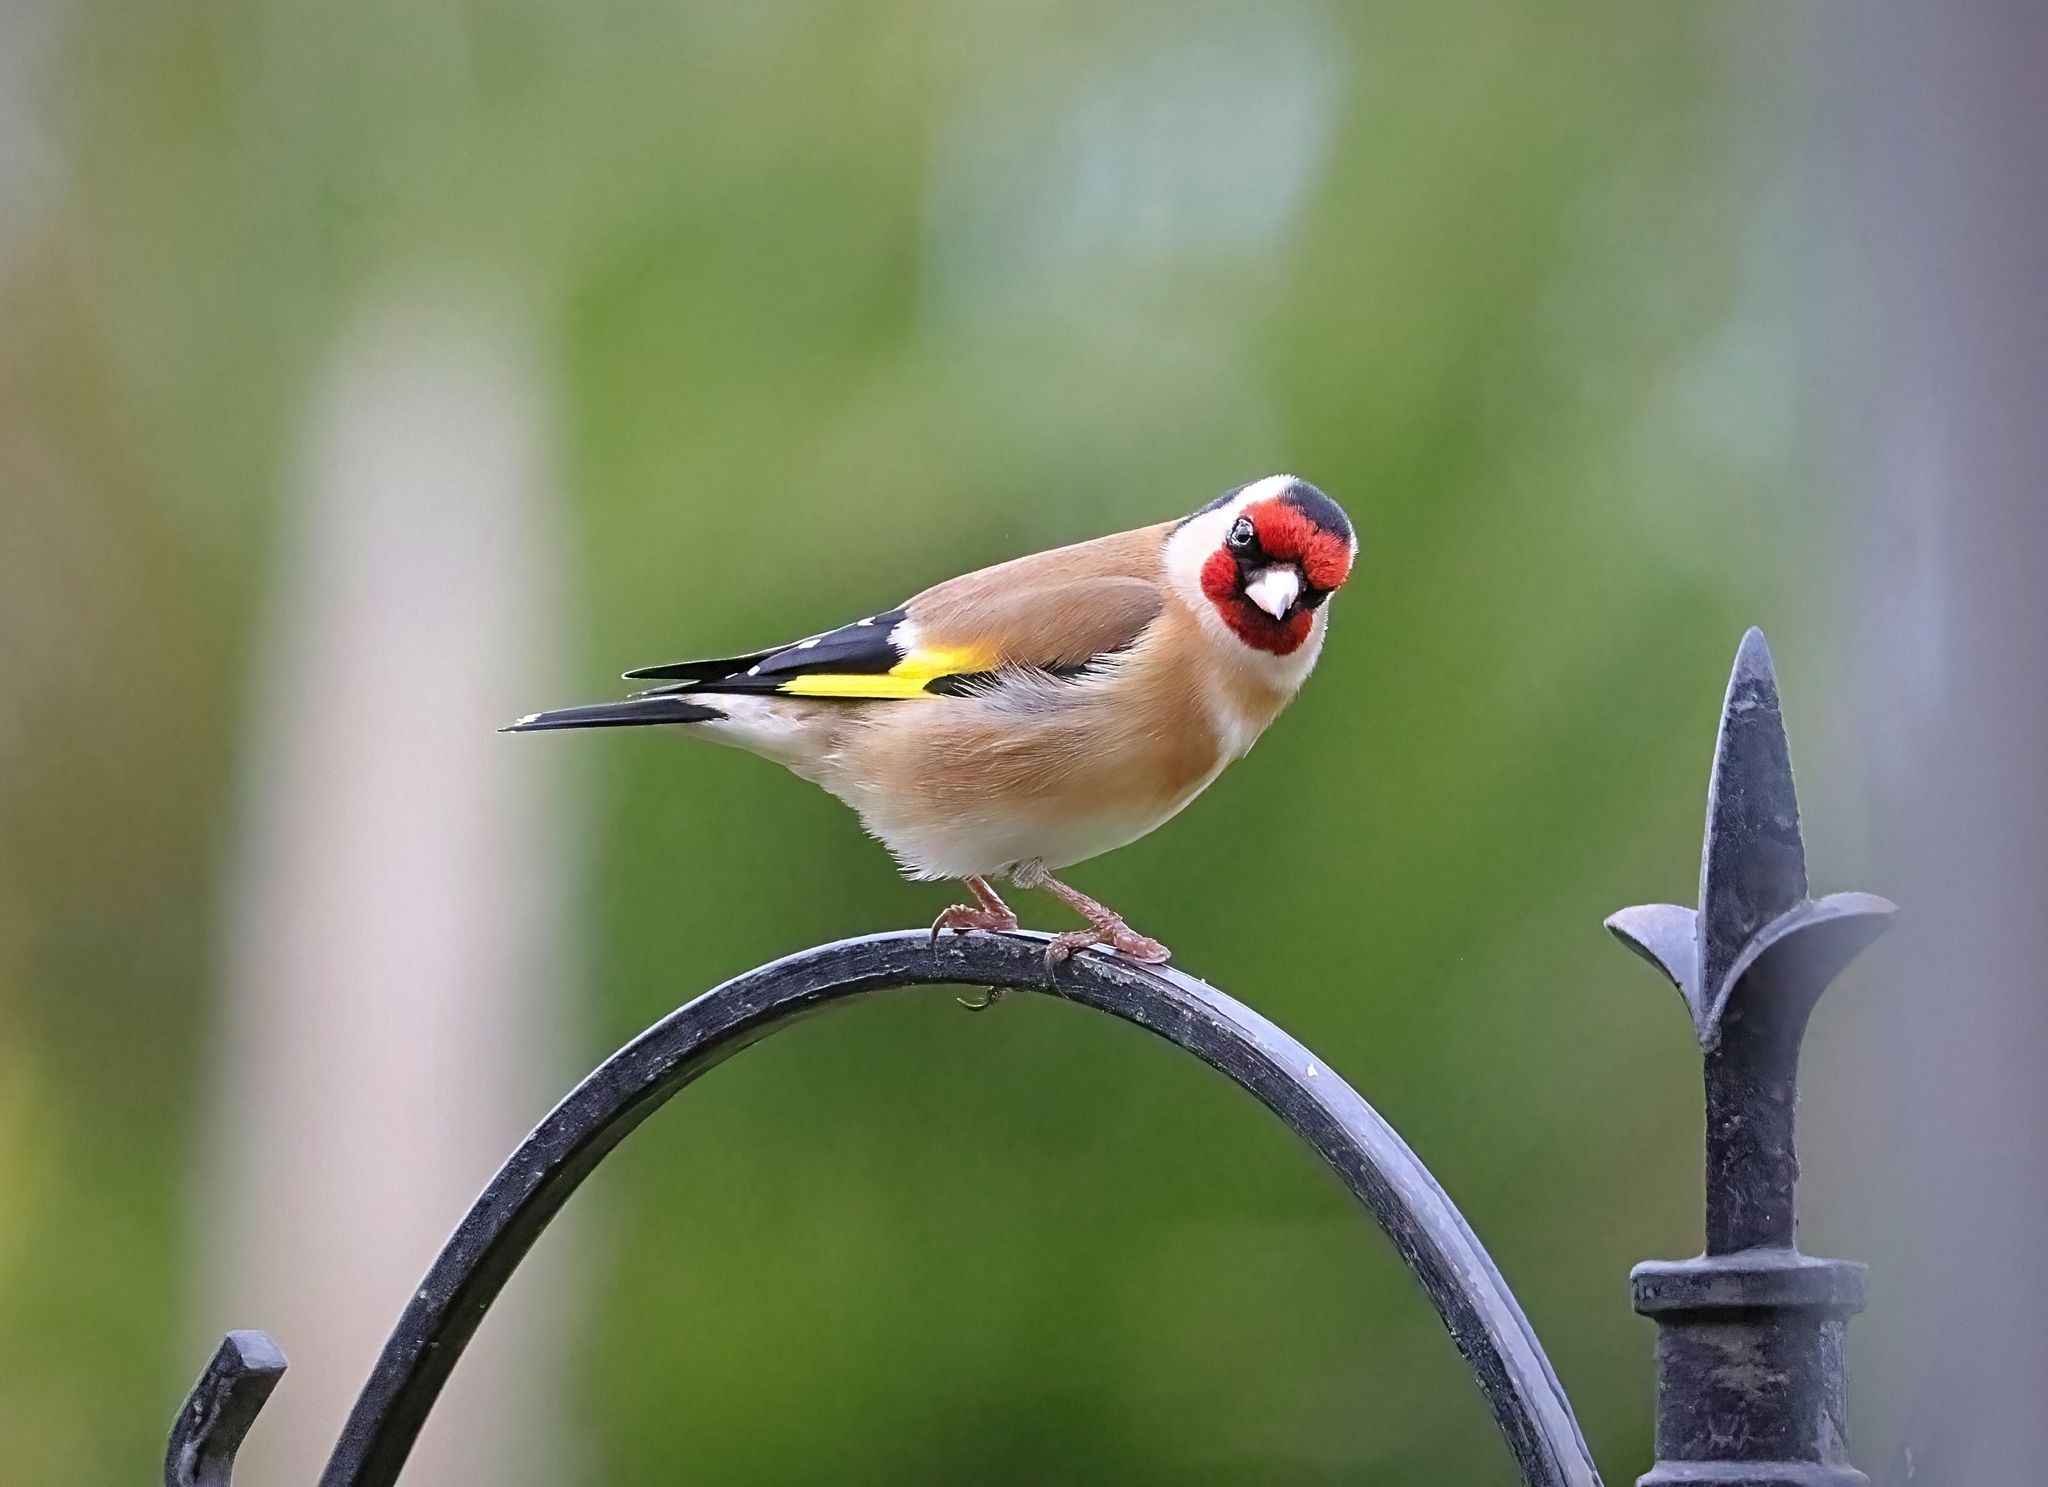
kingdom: Animalia
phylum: Chordata
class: Aves
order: Passeriformes
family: Fringillidae
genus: Carduelis
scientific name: Carduelis carduelis
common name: European goldfinch
